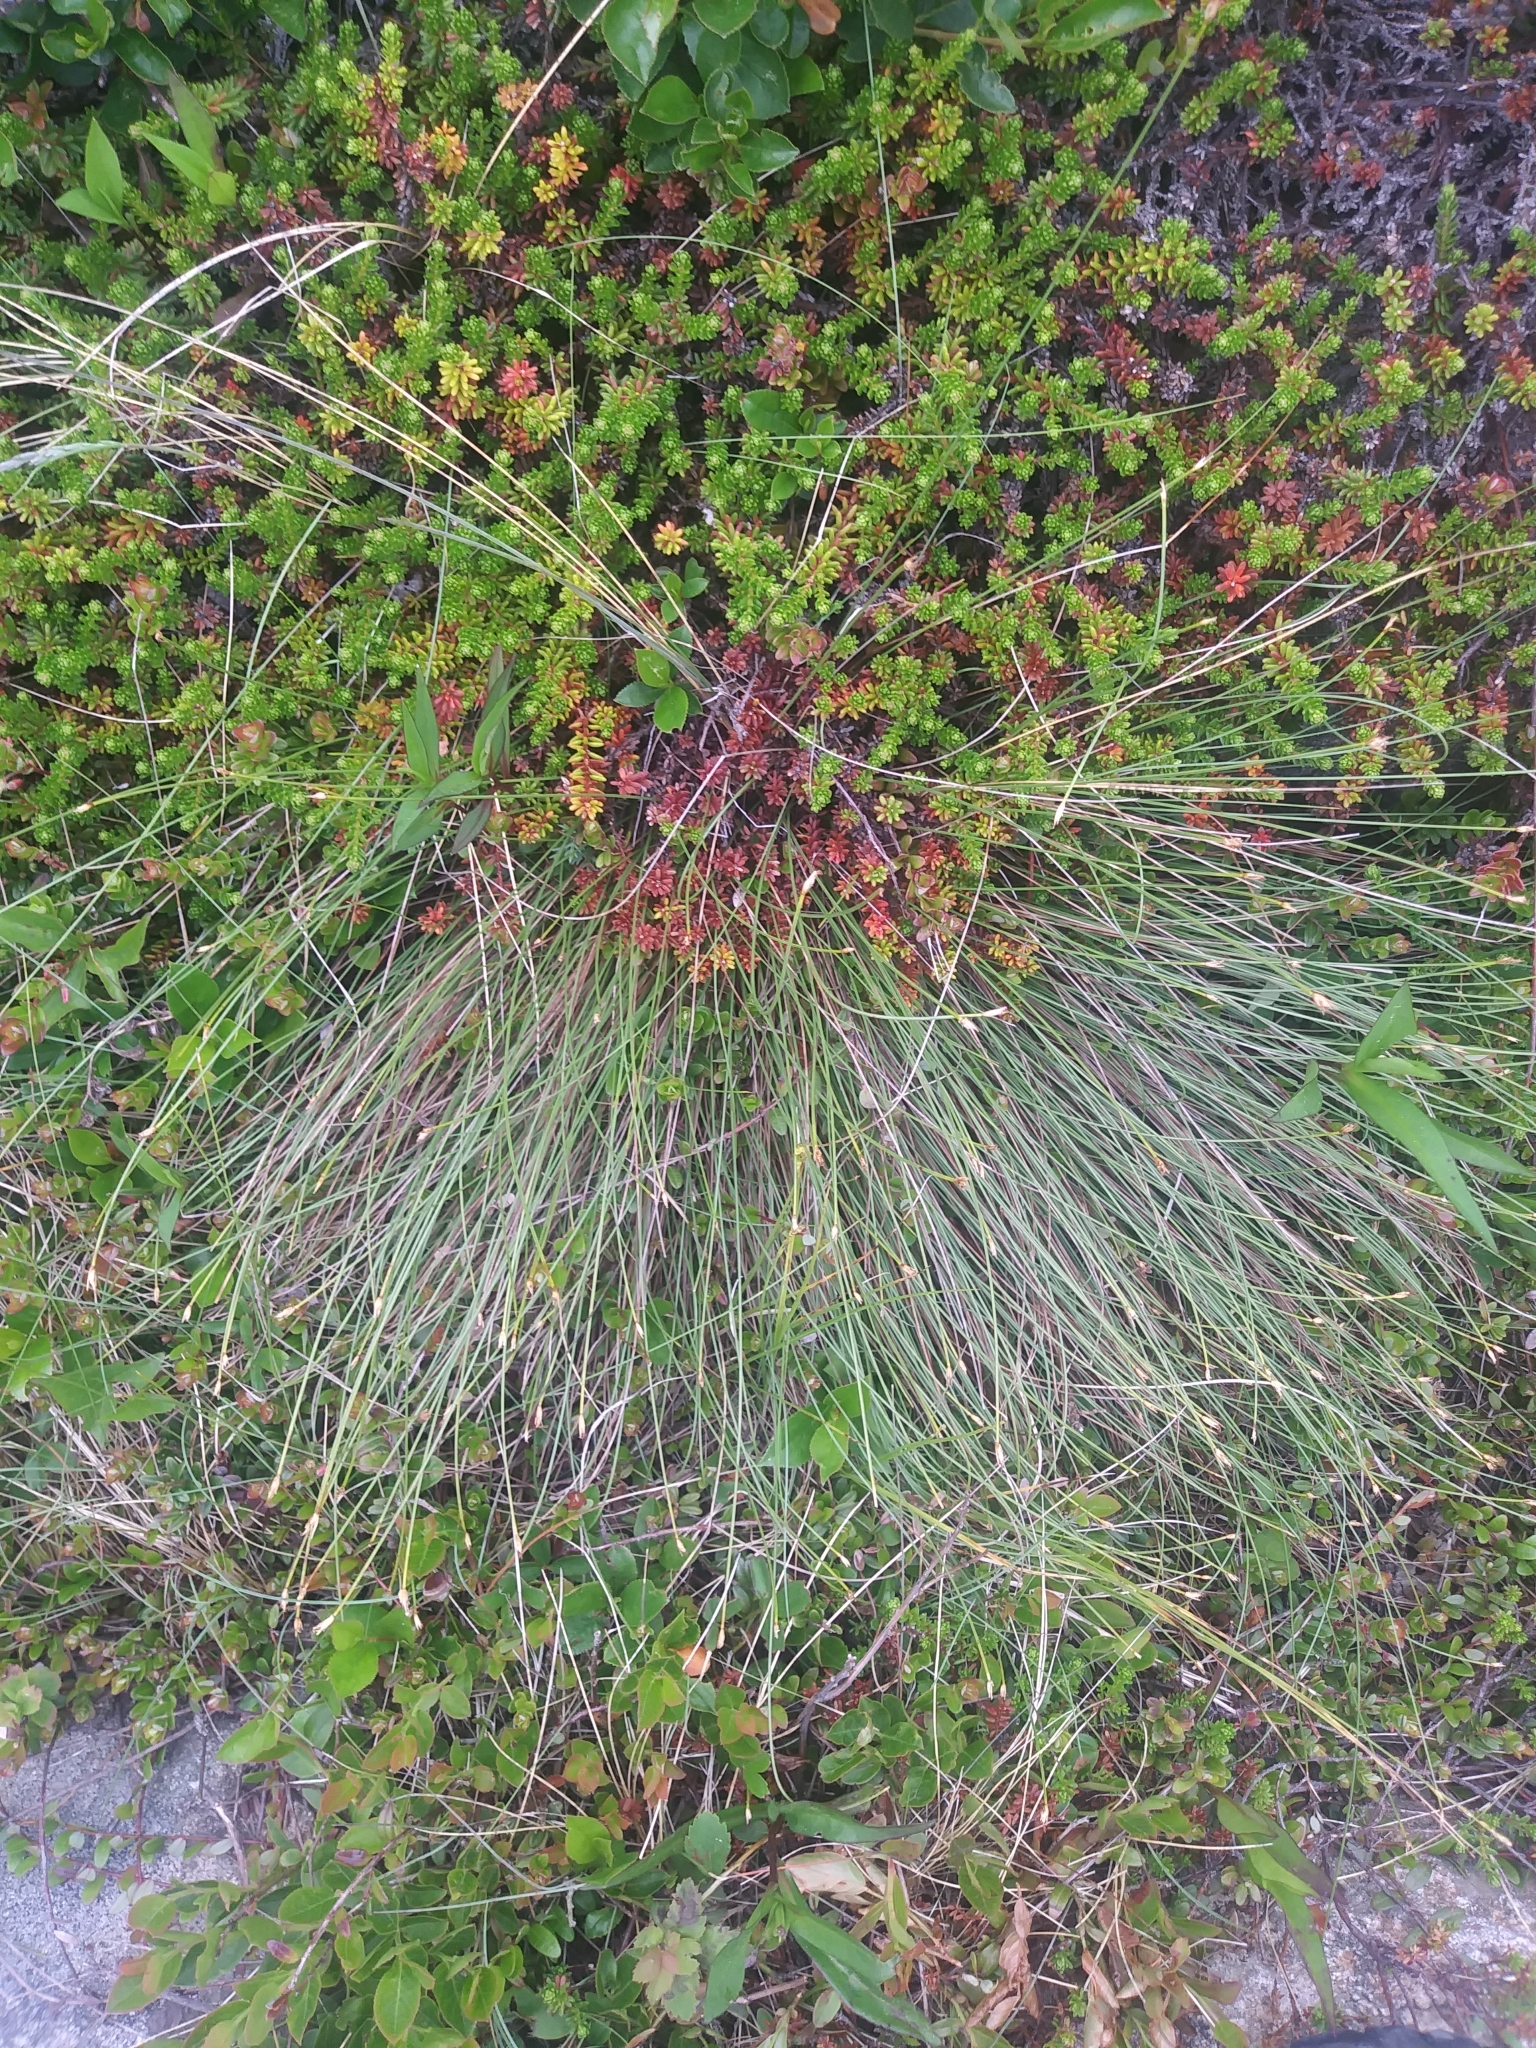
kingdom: Plantae
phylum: Tracheophyta
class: Liliopsida
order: Poales
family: Cyperaceae
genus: Trichophorum
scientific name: Trichophorum cespitosum
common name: Cespitose bulrush
